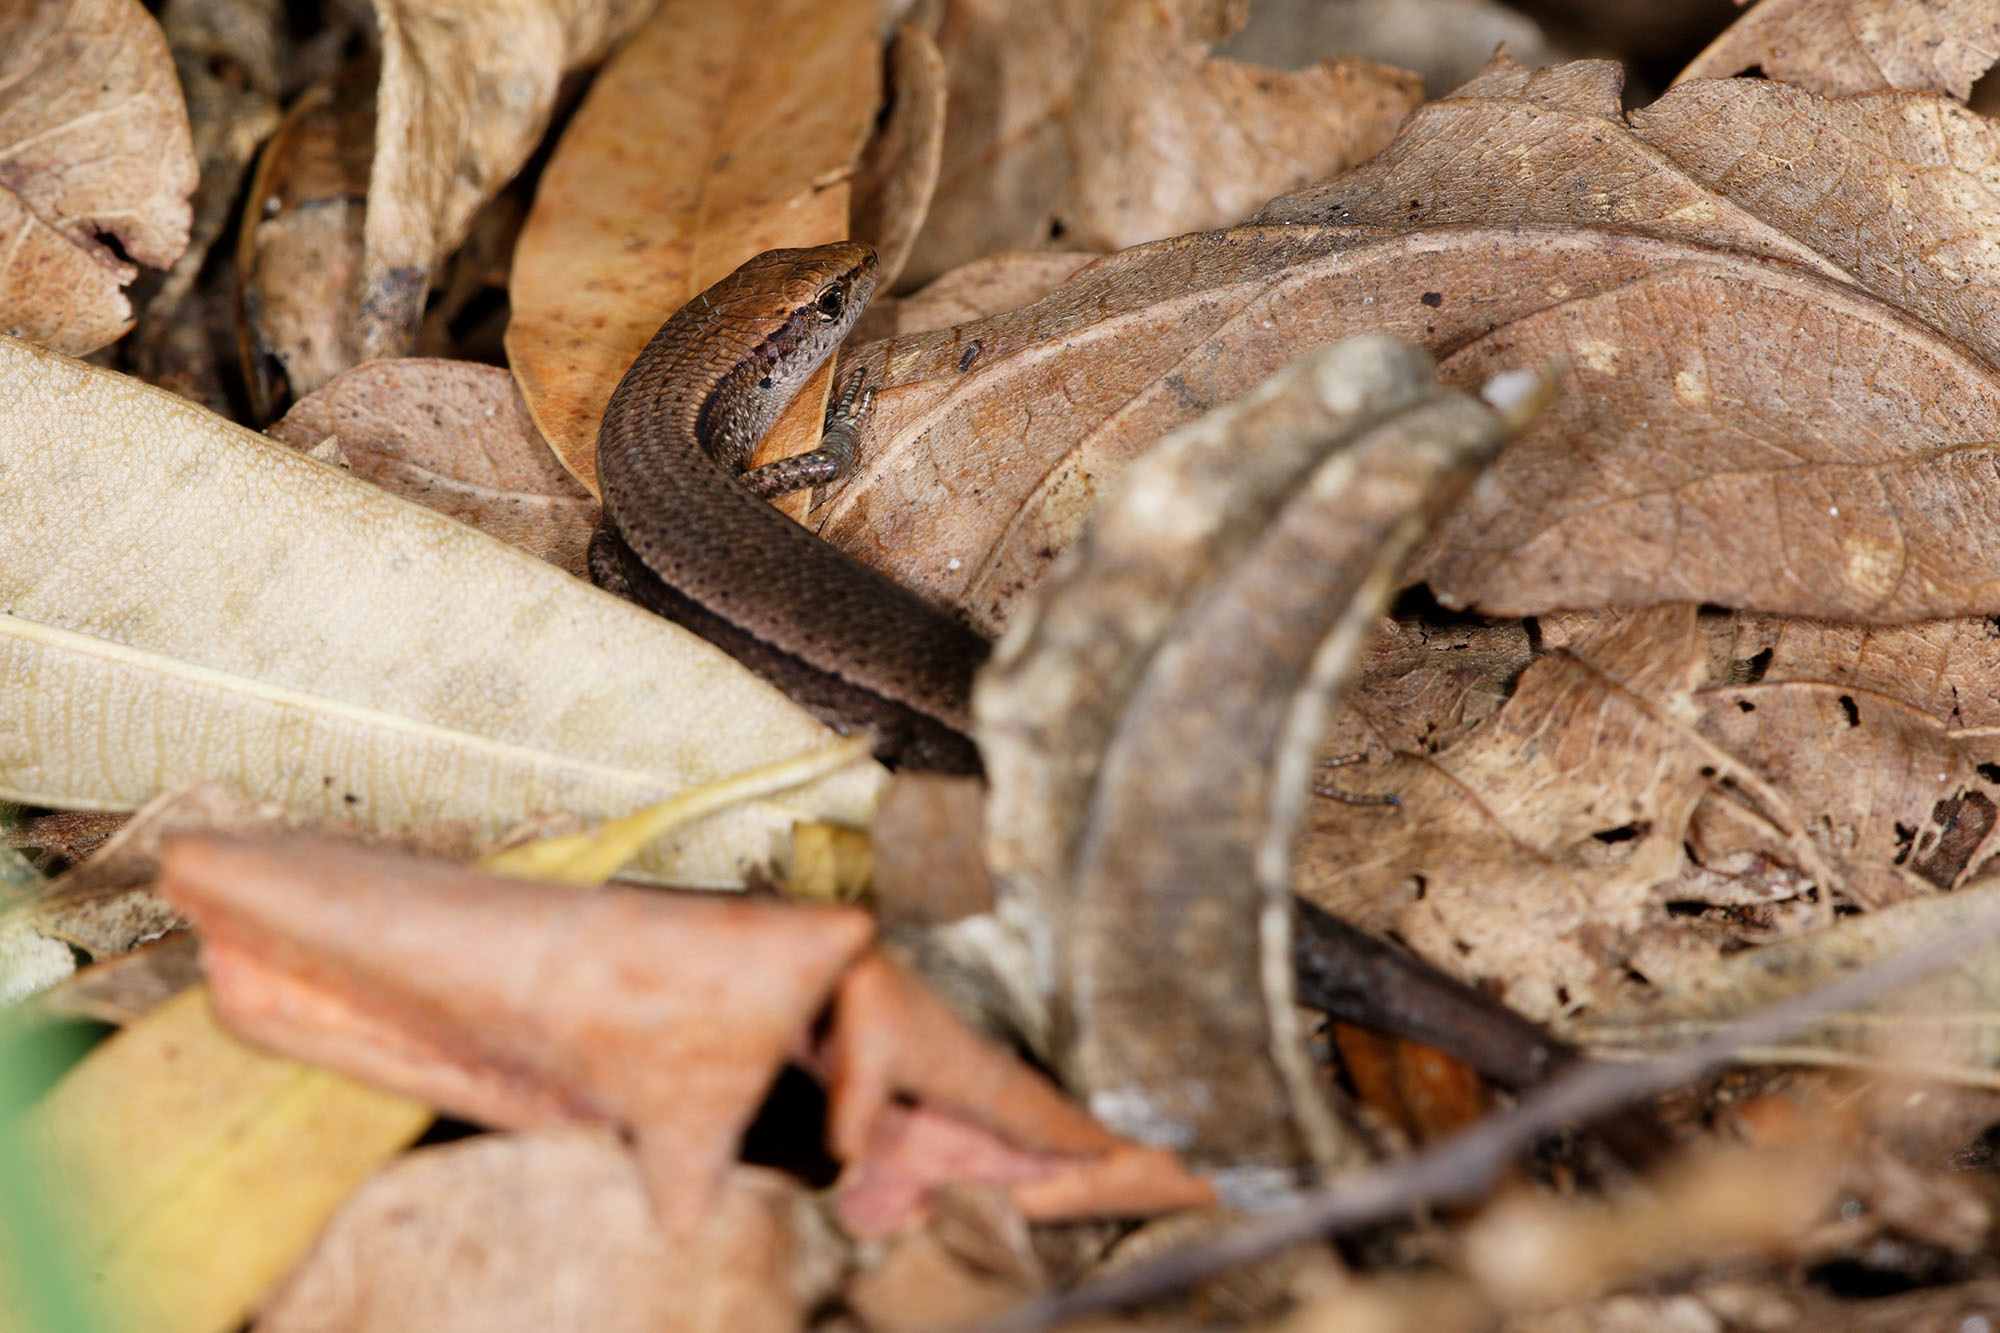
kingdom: Animalia
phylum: Chordata
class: Squamata
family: Scincidae
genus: Lampropholis
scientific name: Lampropholis delicata
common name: Plague skink
